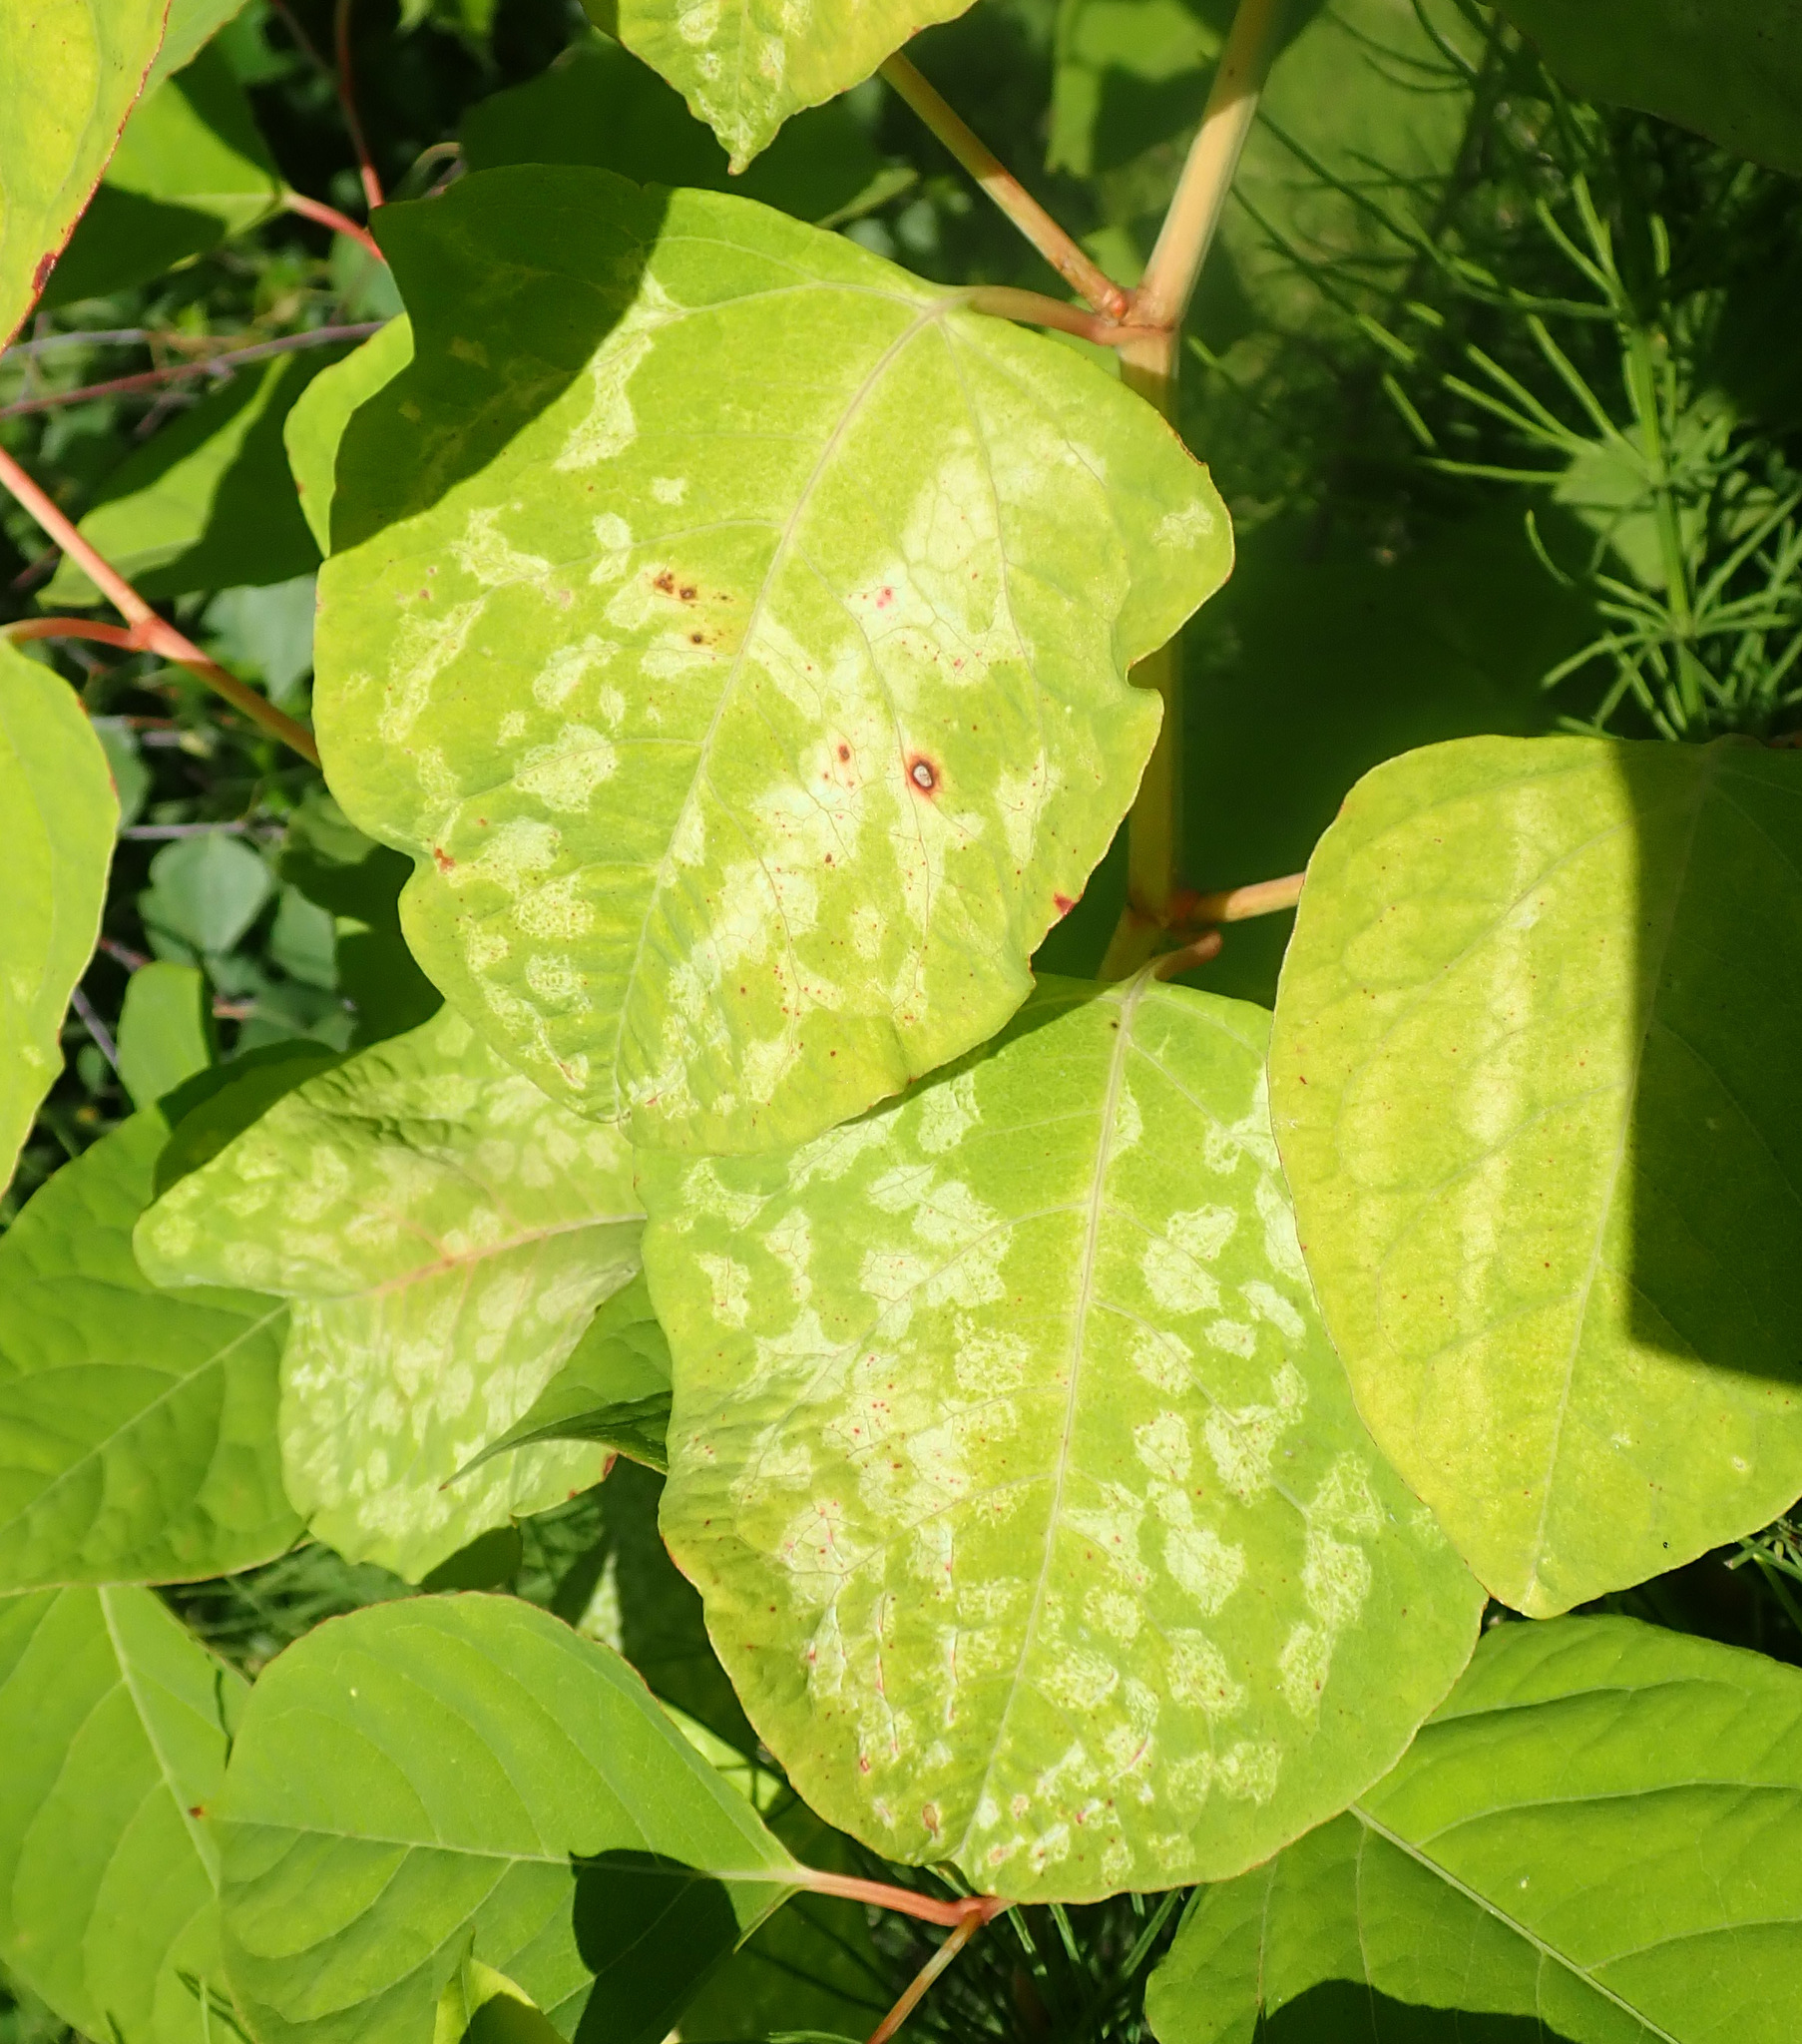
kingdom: Plantae
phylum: Tracheophyta
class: Magnoliopsida
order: Caryophyllales
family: Polygonaceae
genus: Reynoutria
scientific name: Reynoutria japonica
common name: Japanese knotweed
